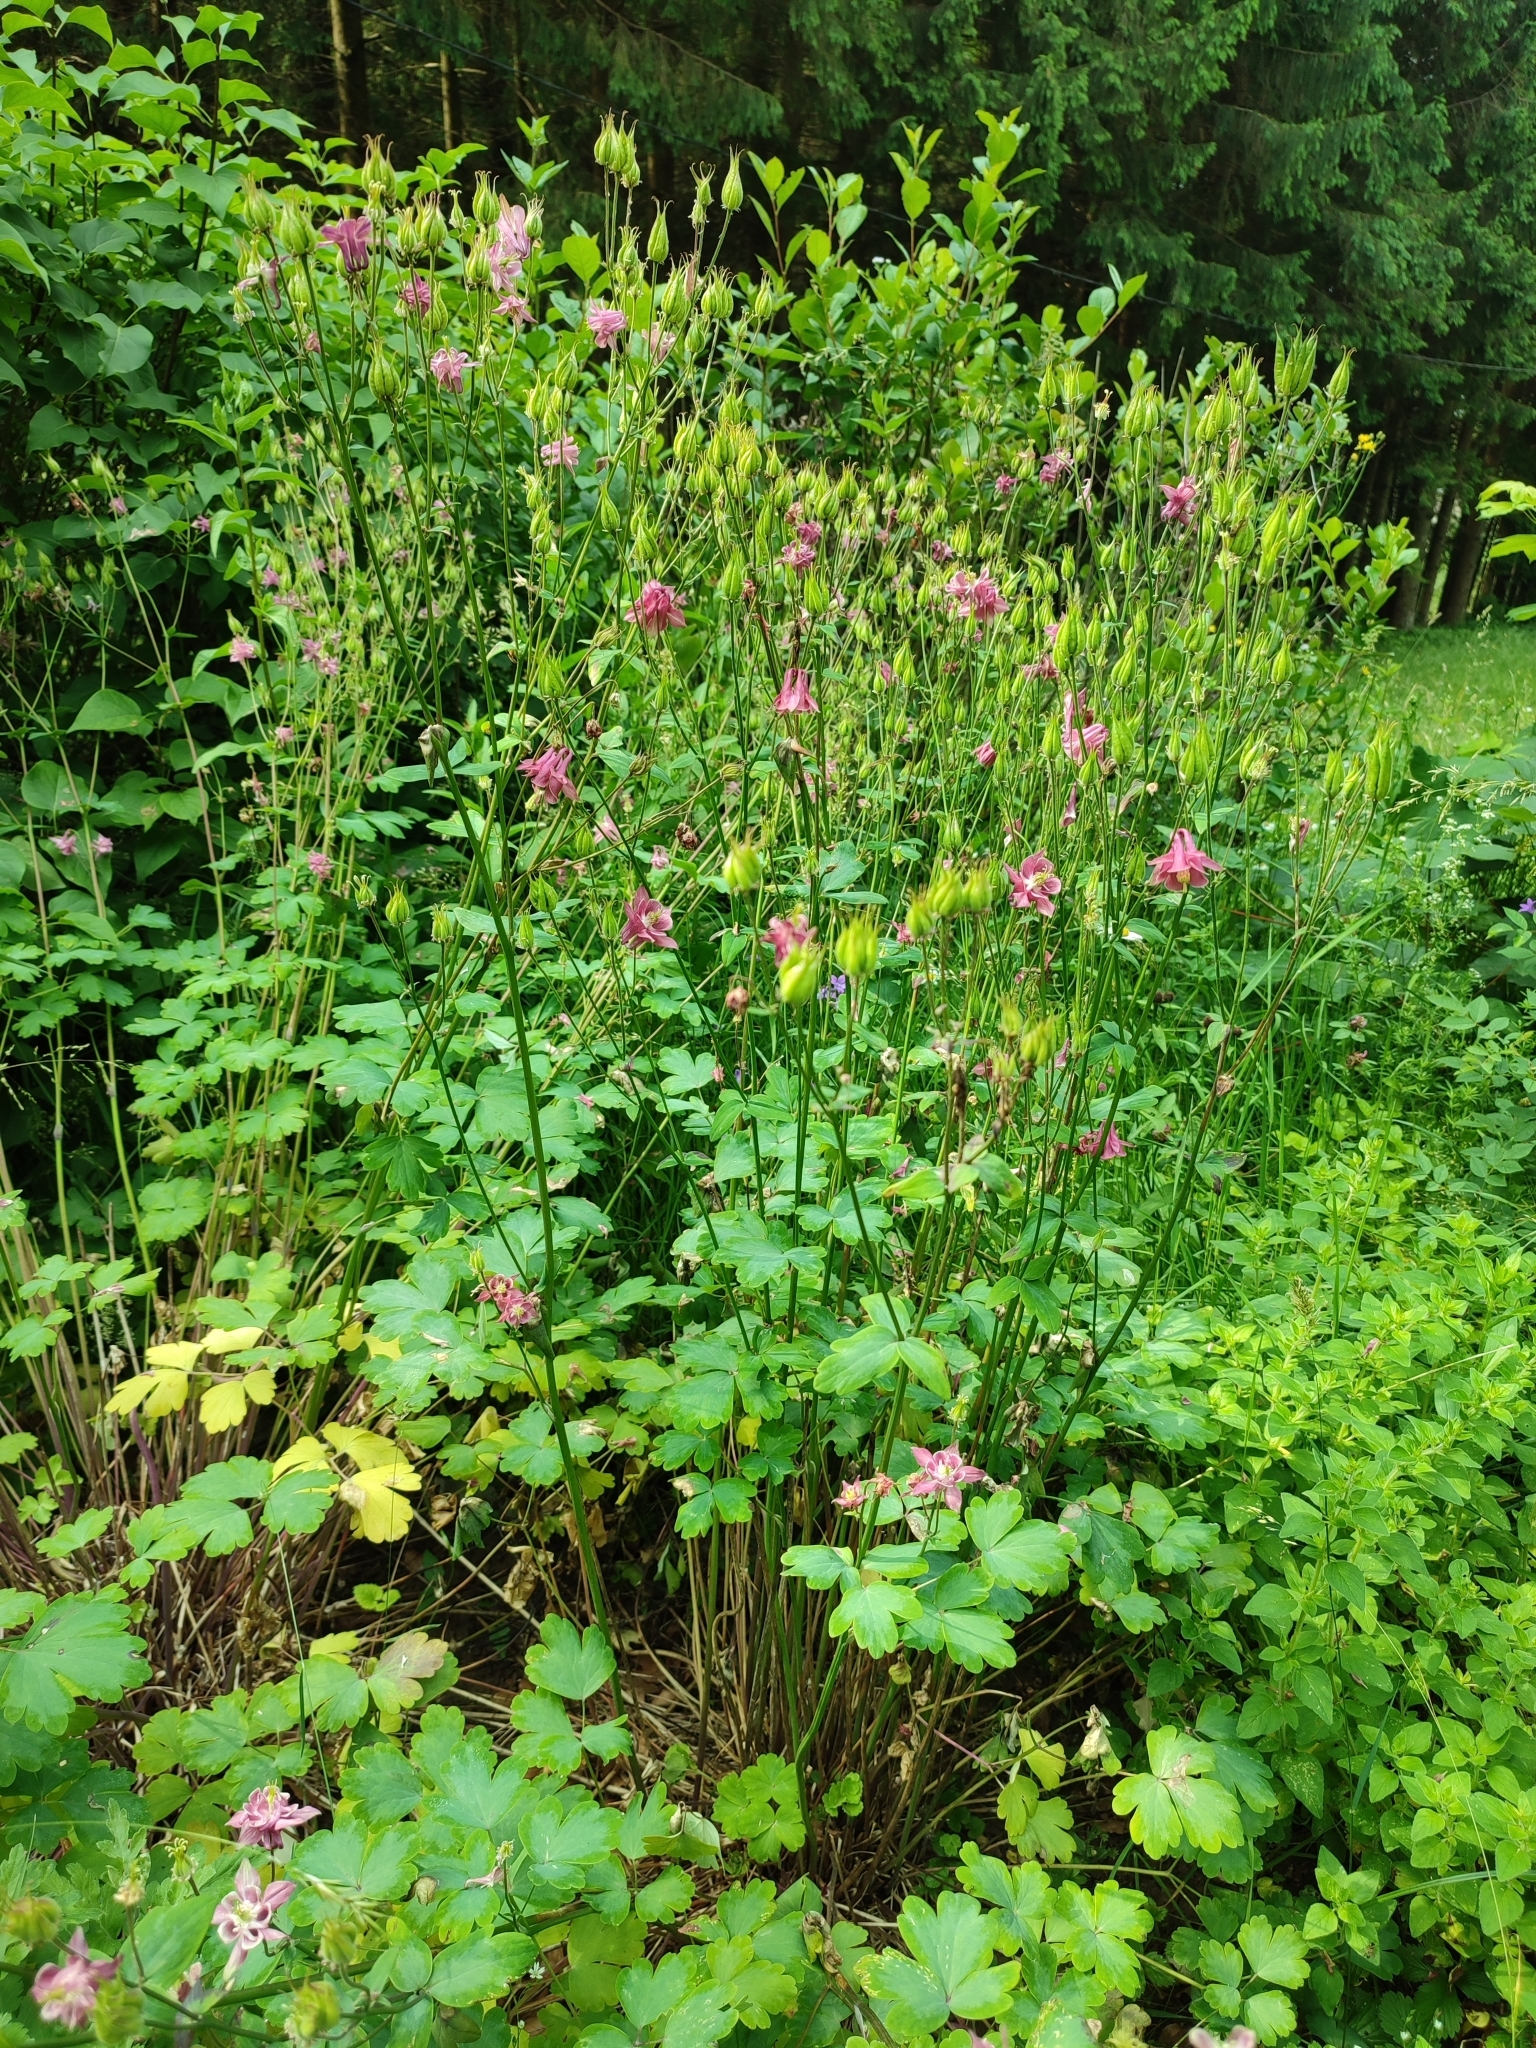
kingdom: Plantae
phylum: Tracheophyta
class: Magnoliopsida
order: Ranunculales
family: Ranunculaceae
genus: Aquilegia
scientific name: Aquilegia vulgaris
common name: Columbine
